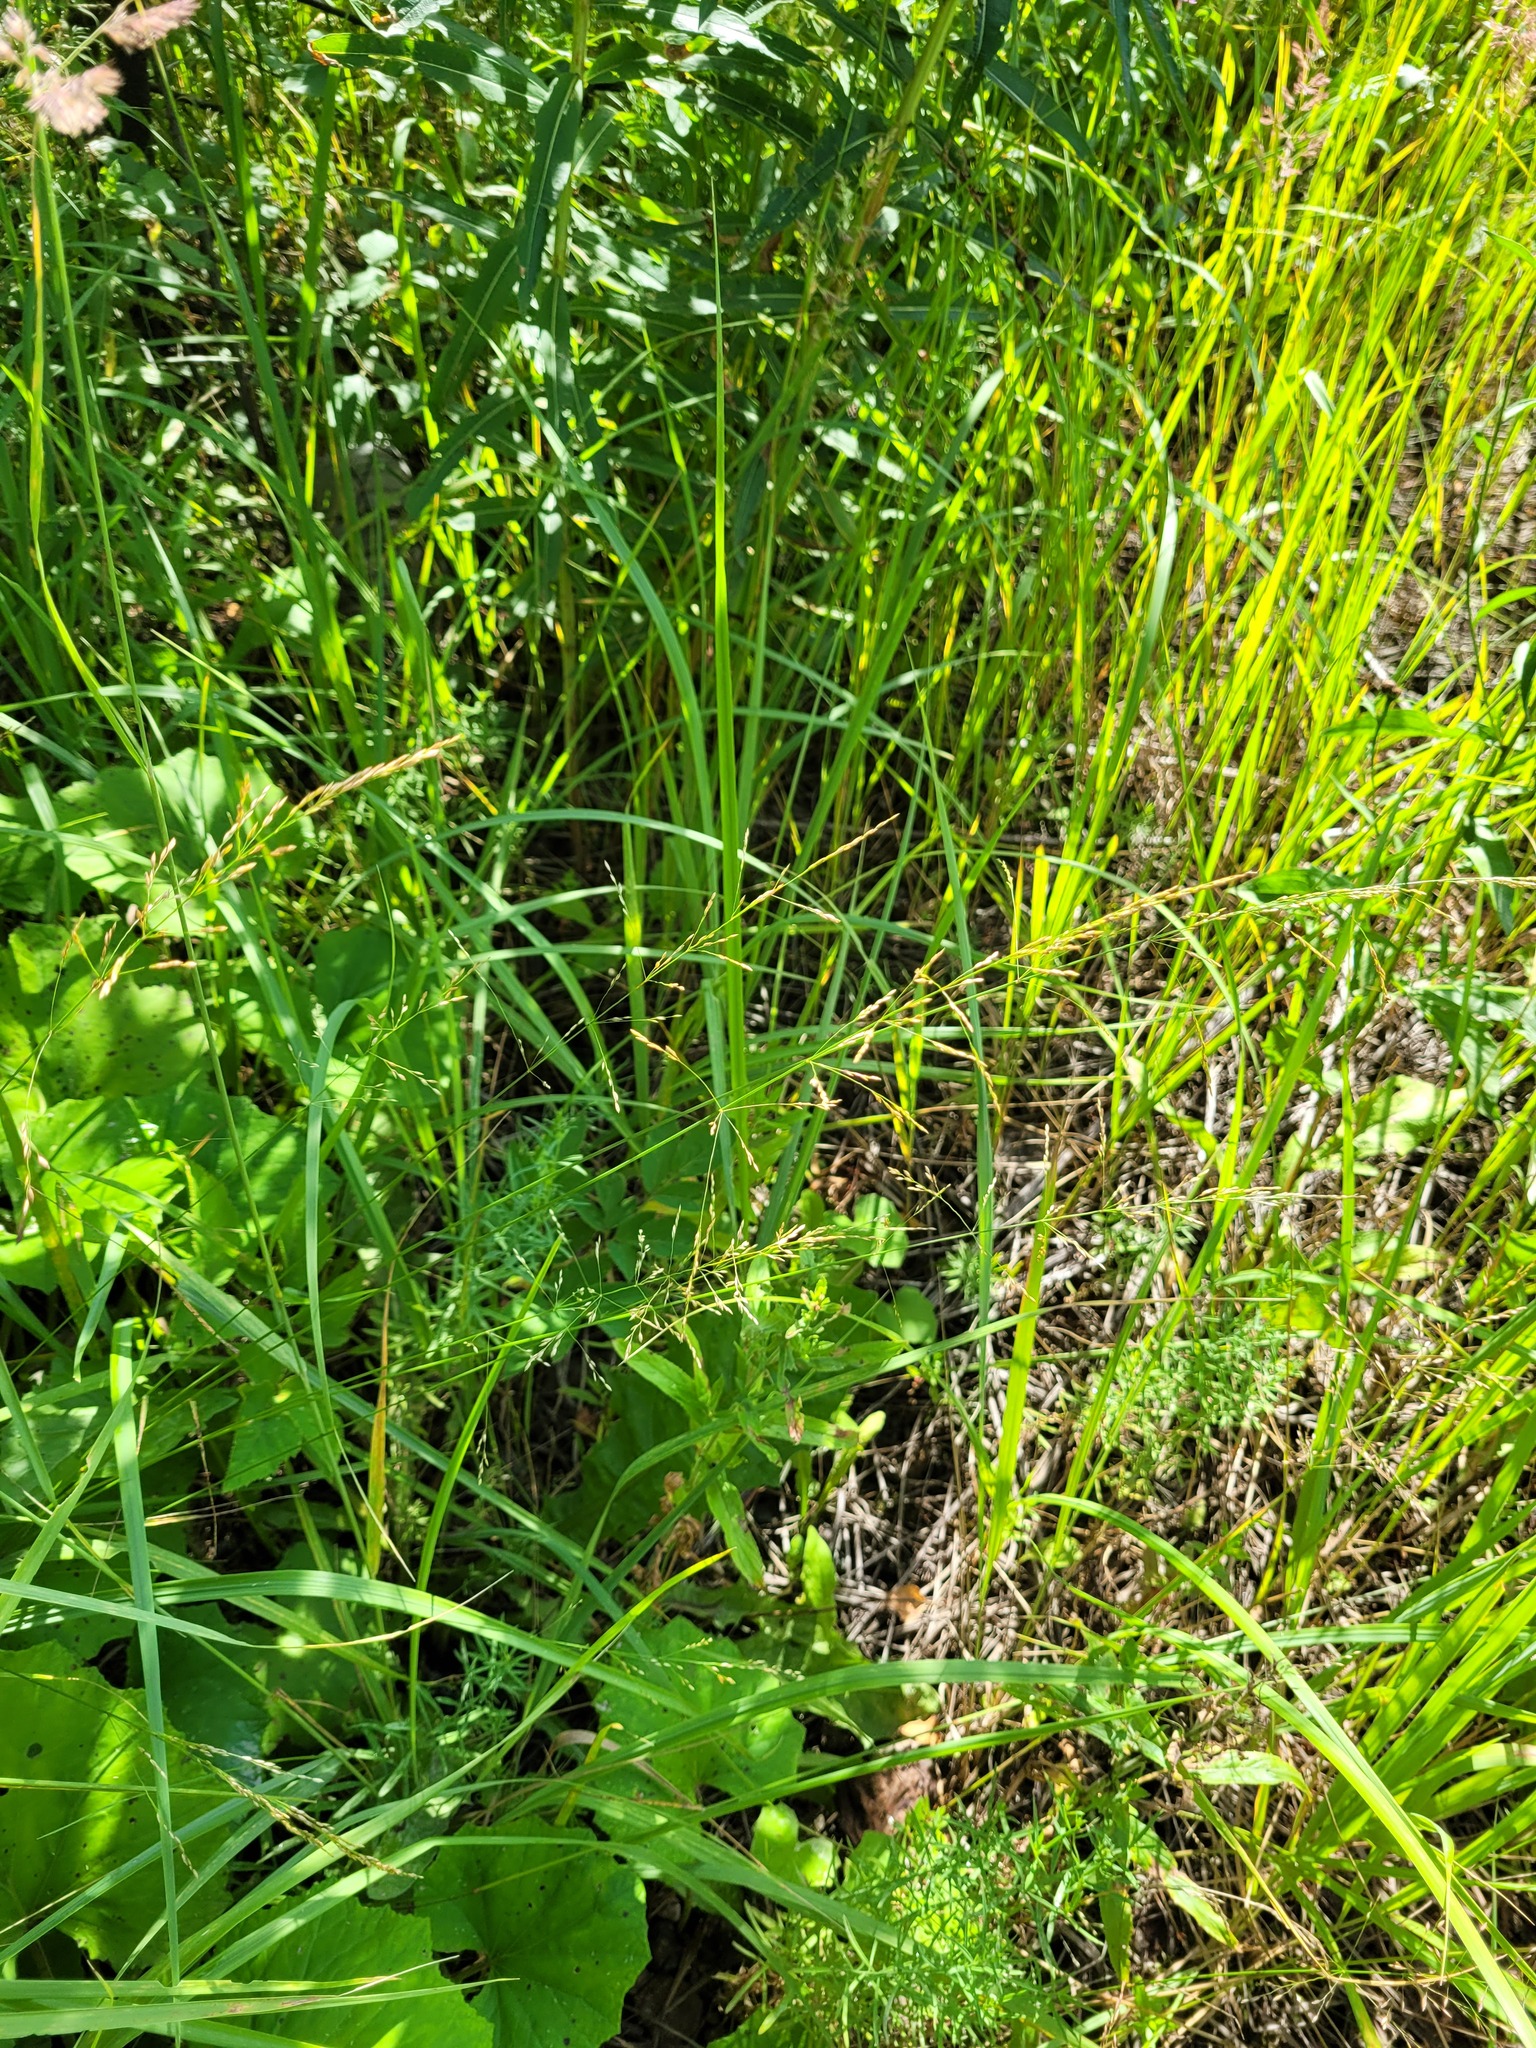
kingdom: Plantae
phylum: Tracheophyta
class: Liliopsida
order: Poales
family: Poaceae
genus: Poa
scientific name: Poa palustris
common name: Swamp meadow-grass
